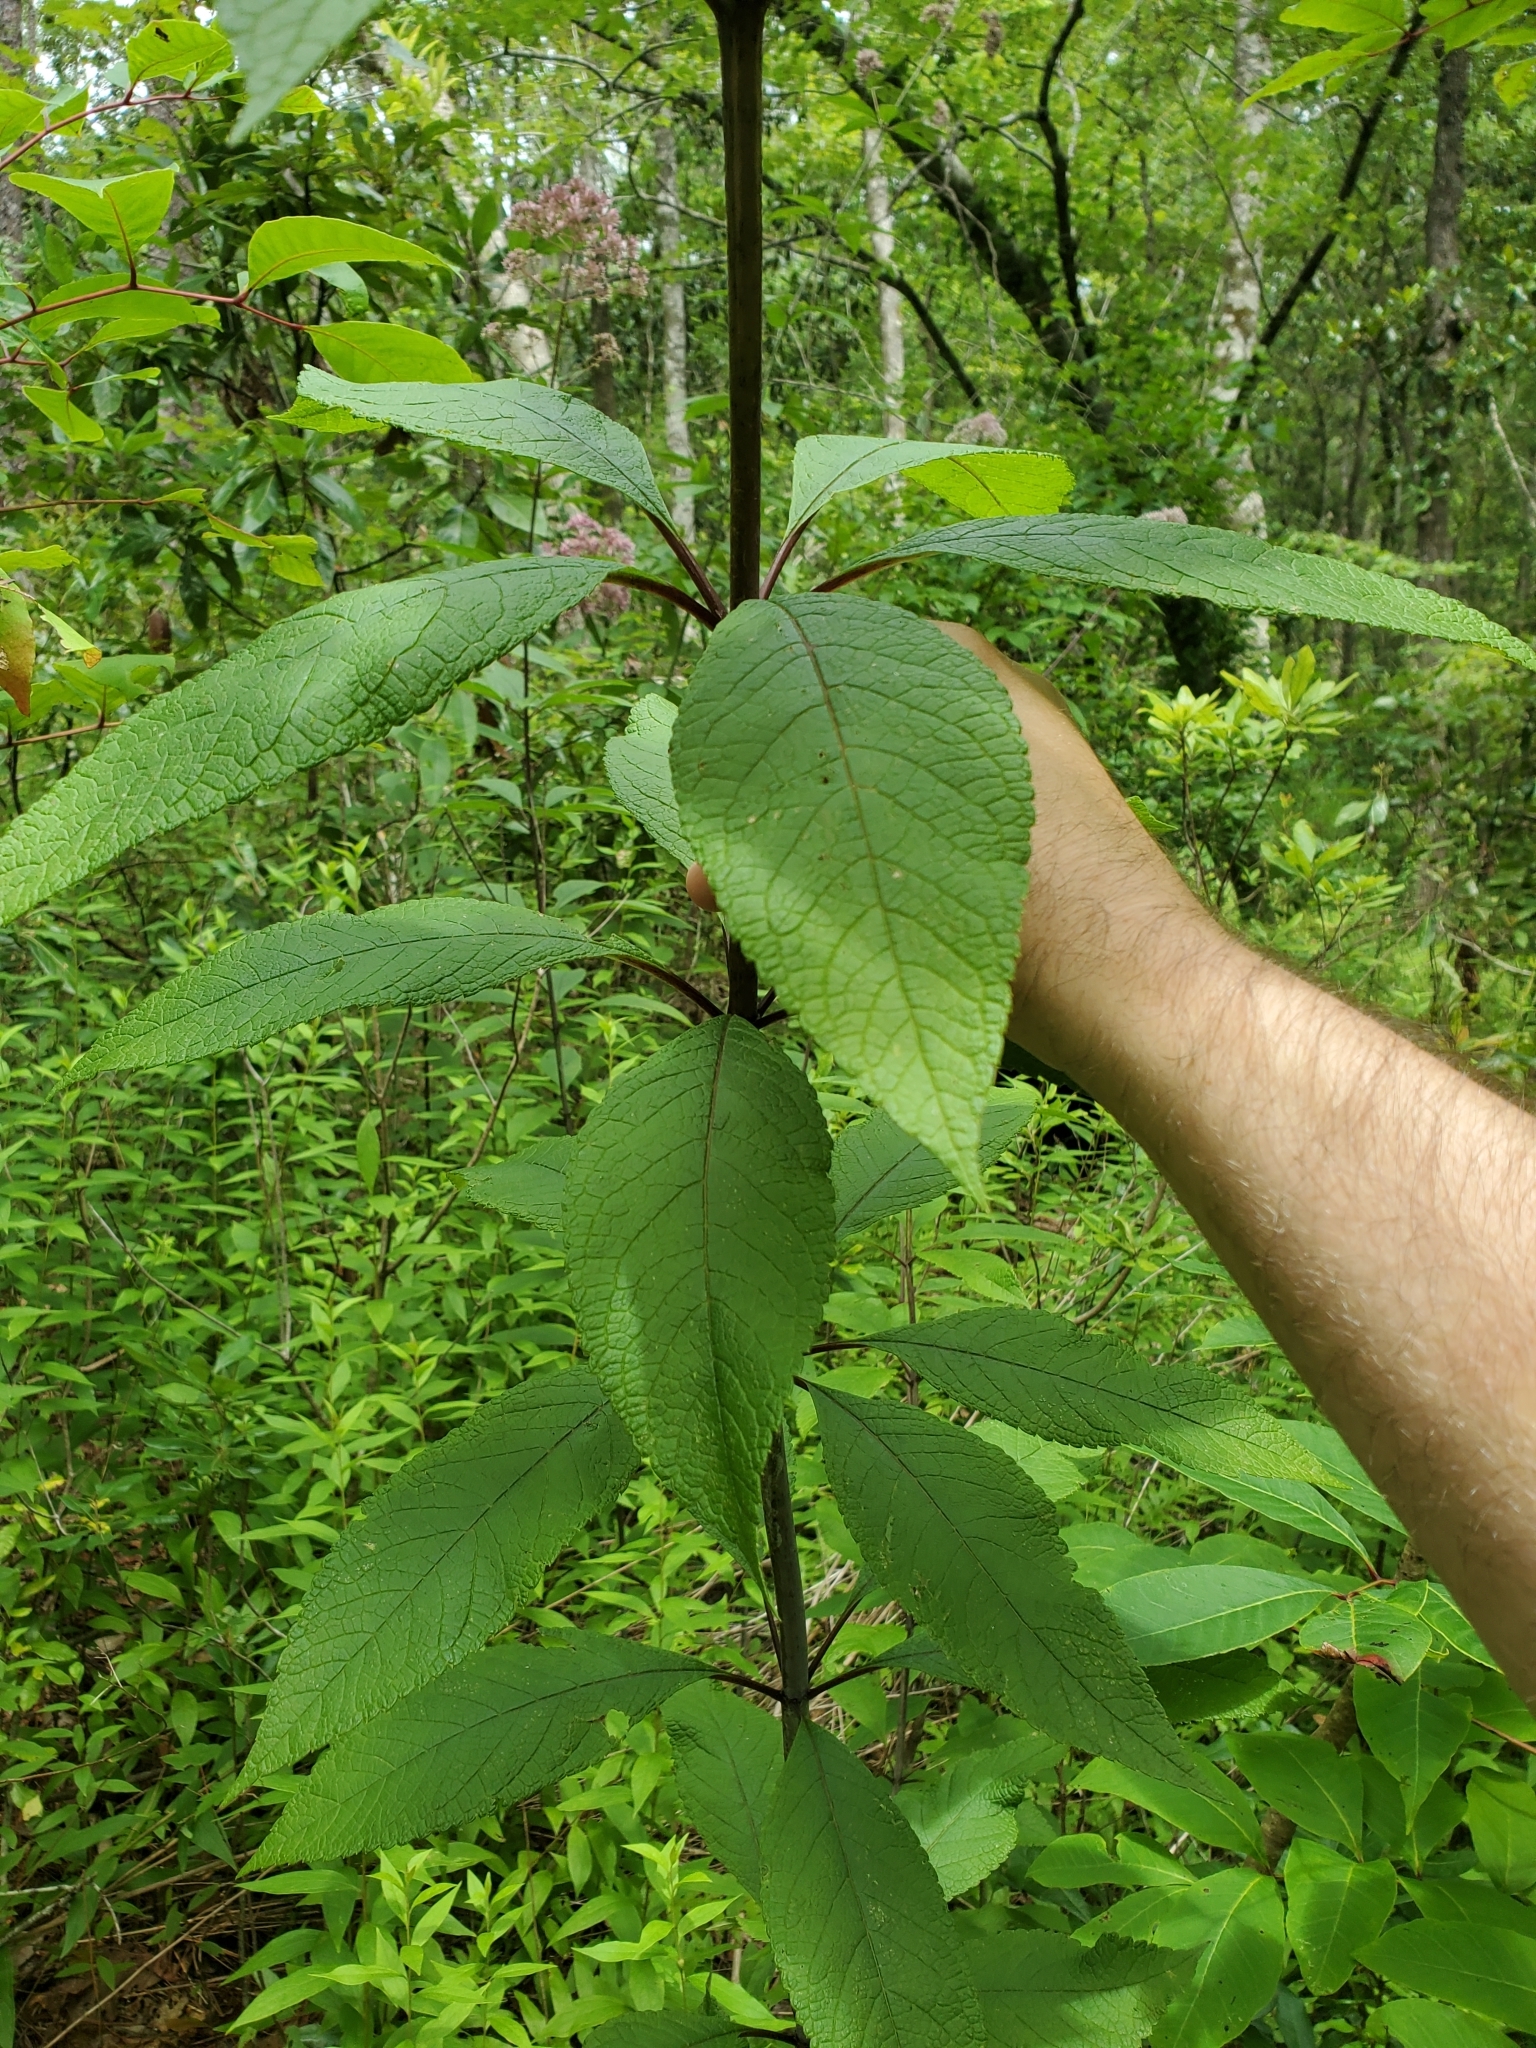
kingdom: Plantae
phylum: Tracheophyta
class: Magnoliopsida
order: Asterales
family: Asteraceae
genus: Eutrochium
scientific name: Eutrochium fistulosum
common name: Trumpetweed
